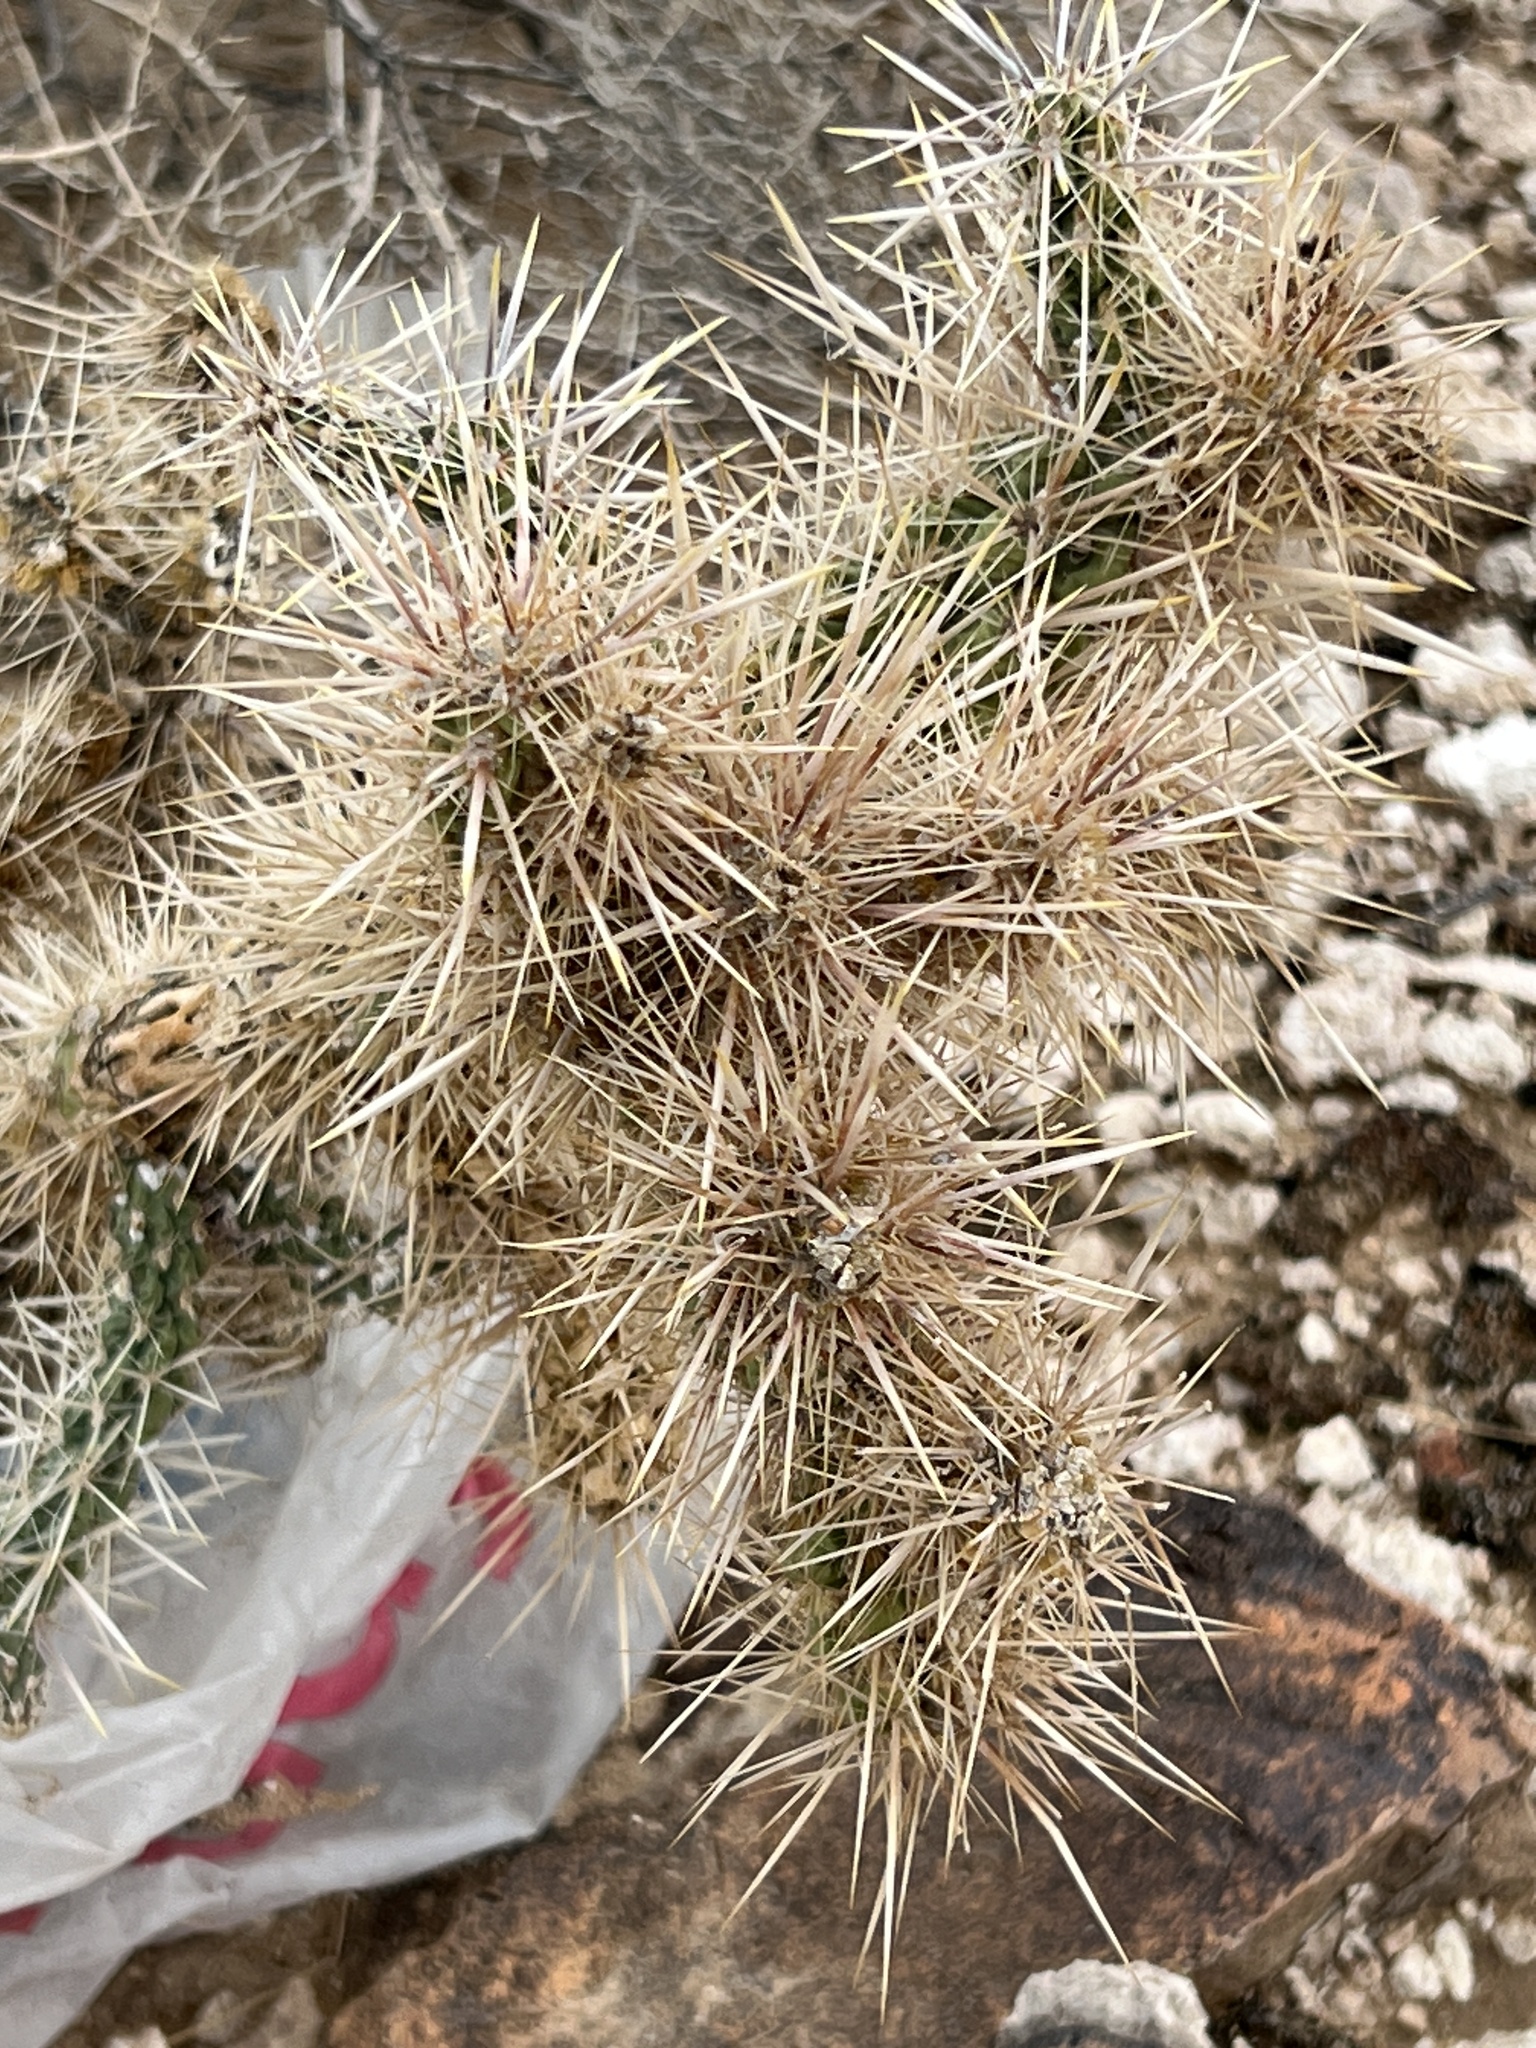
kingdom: Plantae
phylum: Tracheophyta
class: Magnoliopsida
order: Caryophyllales
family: Cactaceae
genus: Cylindropuntia
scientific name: Cylindropuntia echinocarpa
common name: Ground cholla
